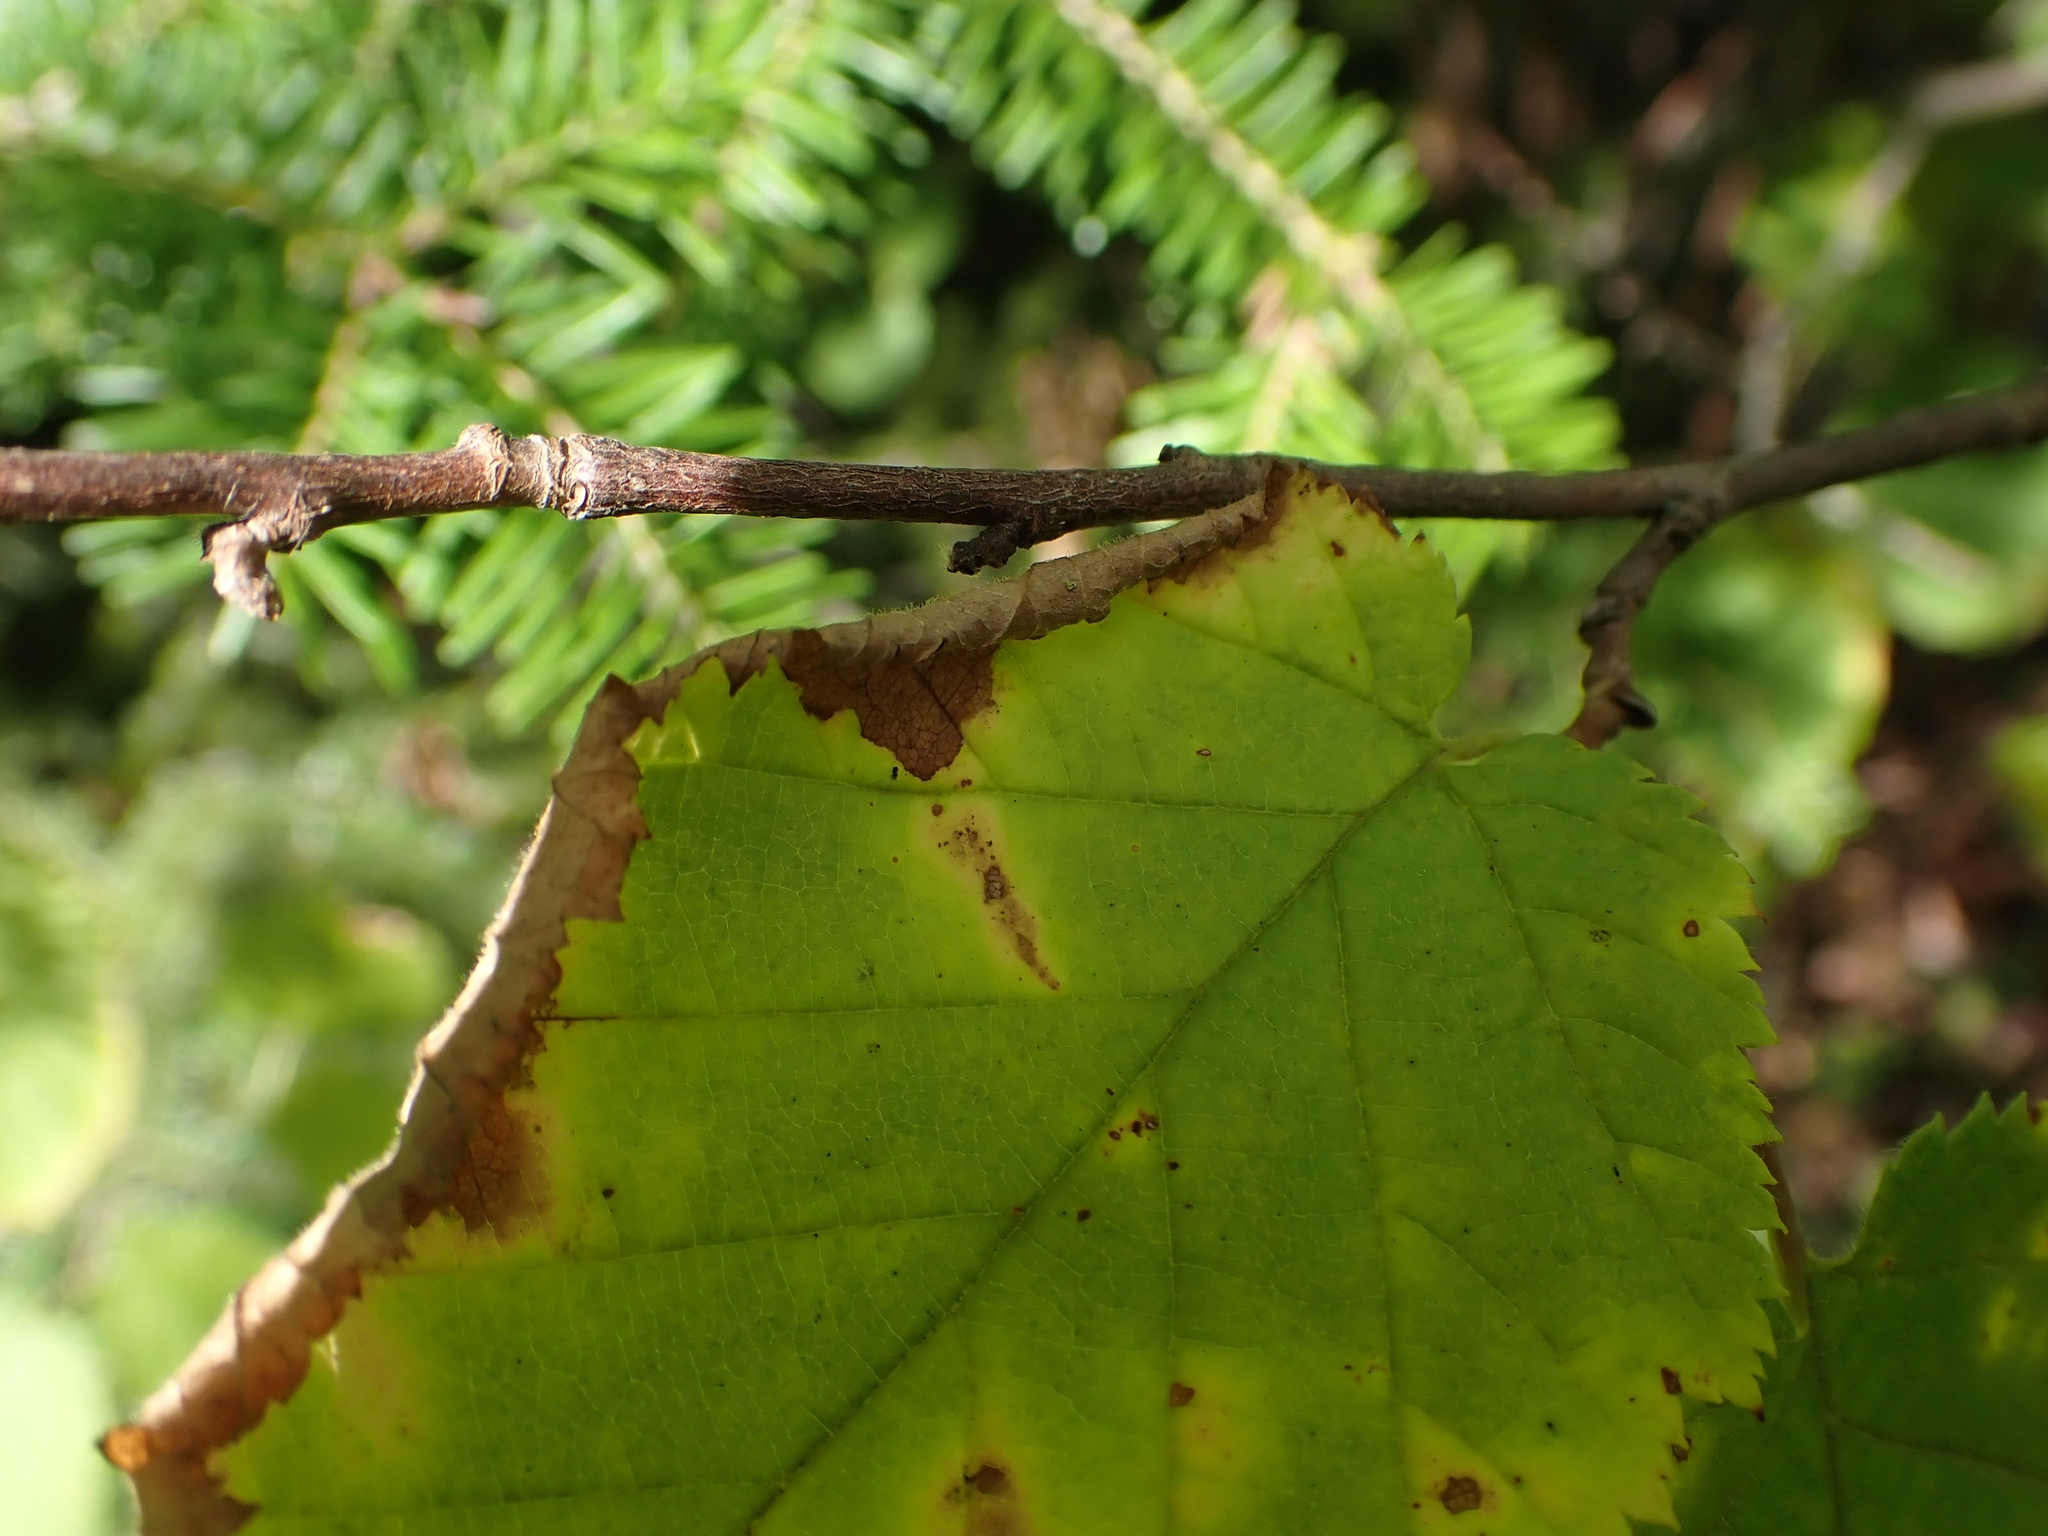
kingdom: Plantae
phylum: Tracheophyta
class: Magnoliopsida
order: Fagales
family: Betulaceae
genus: Corylus
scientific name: Corylus cornuta
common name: Beaked hazel
